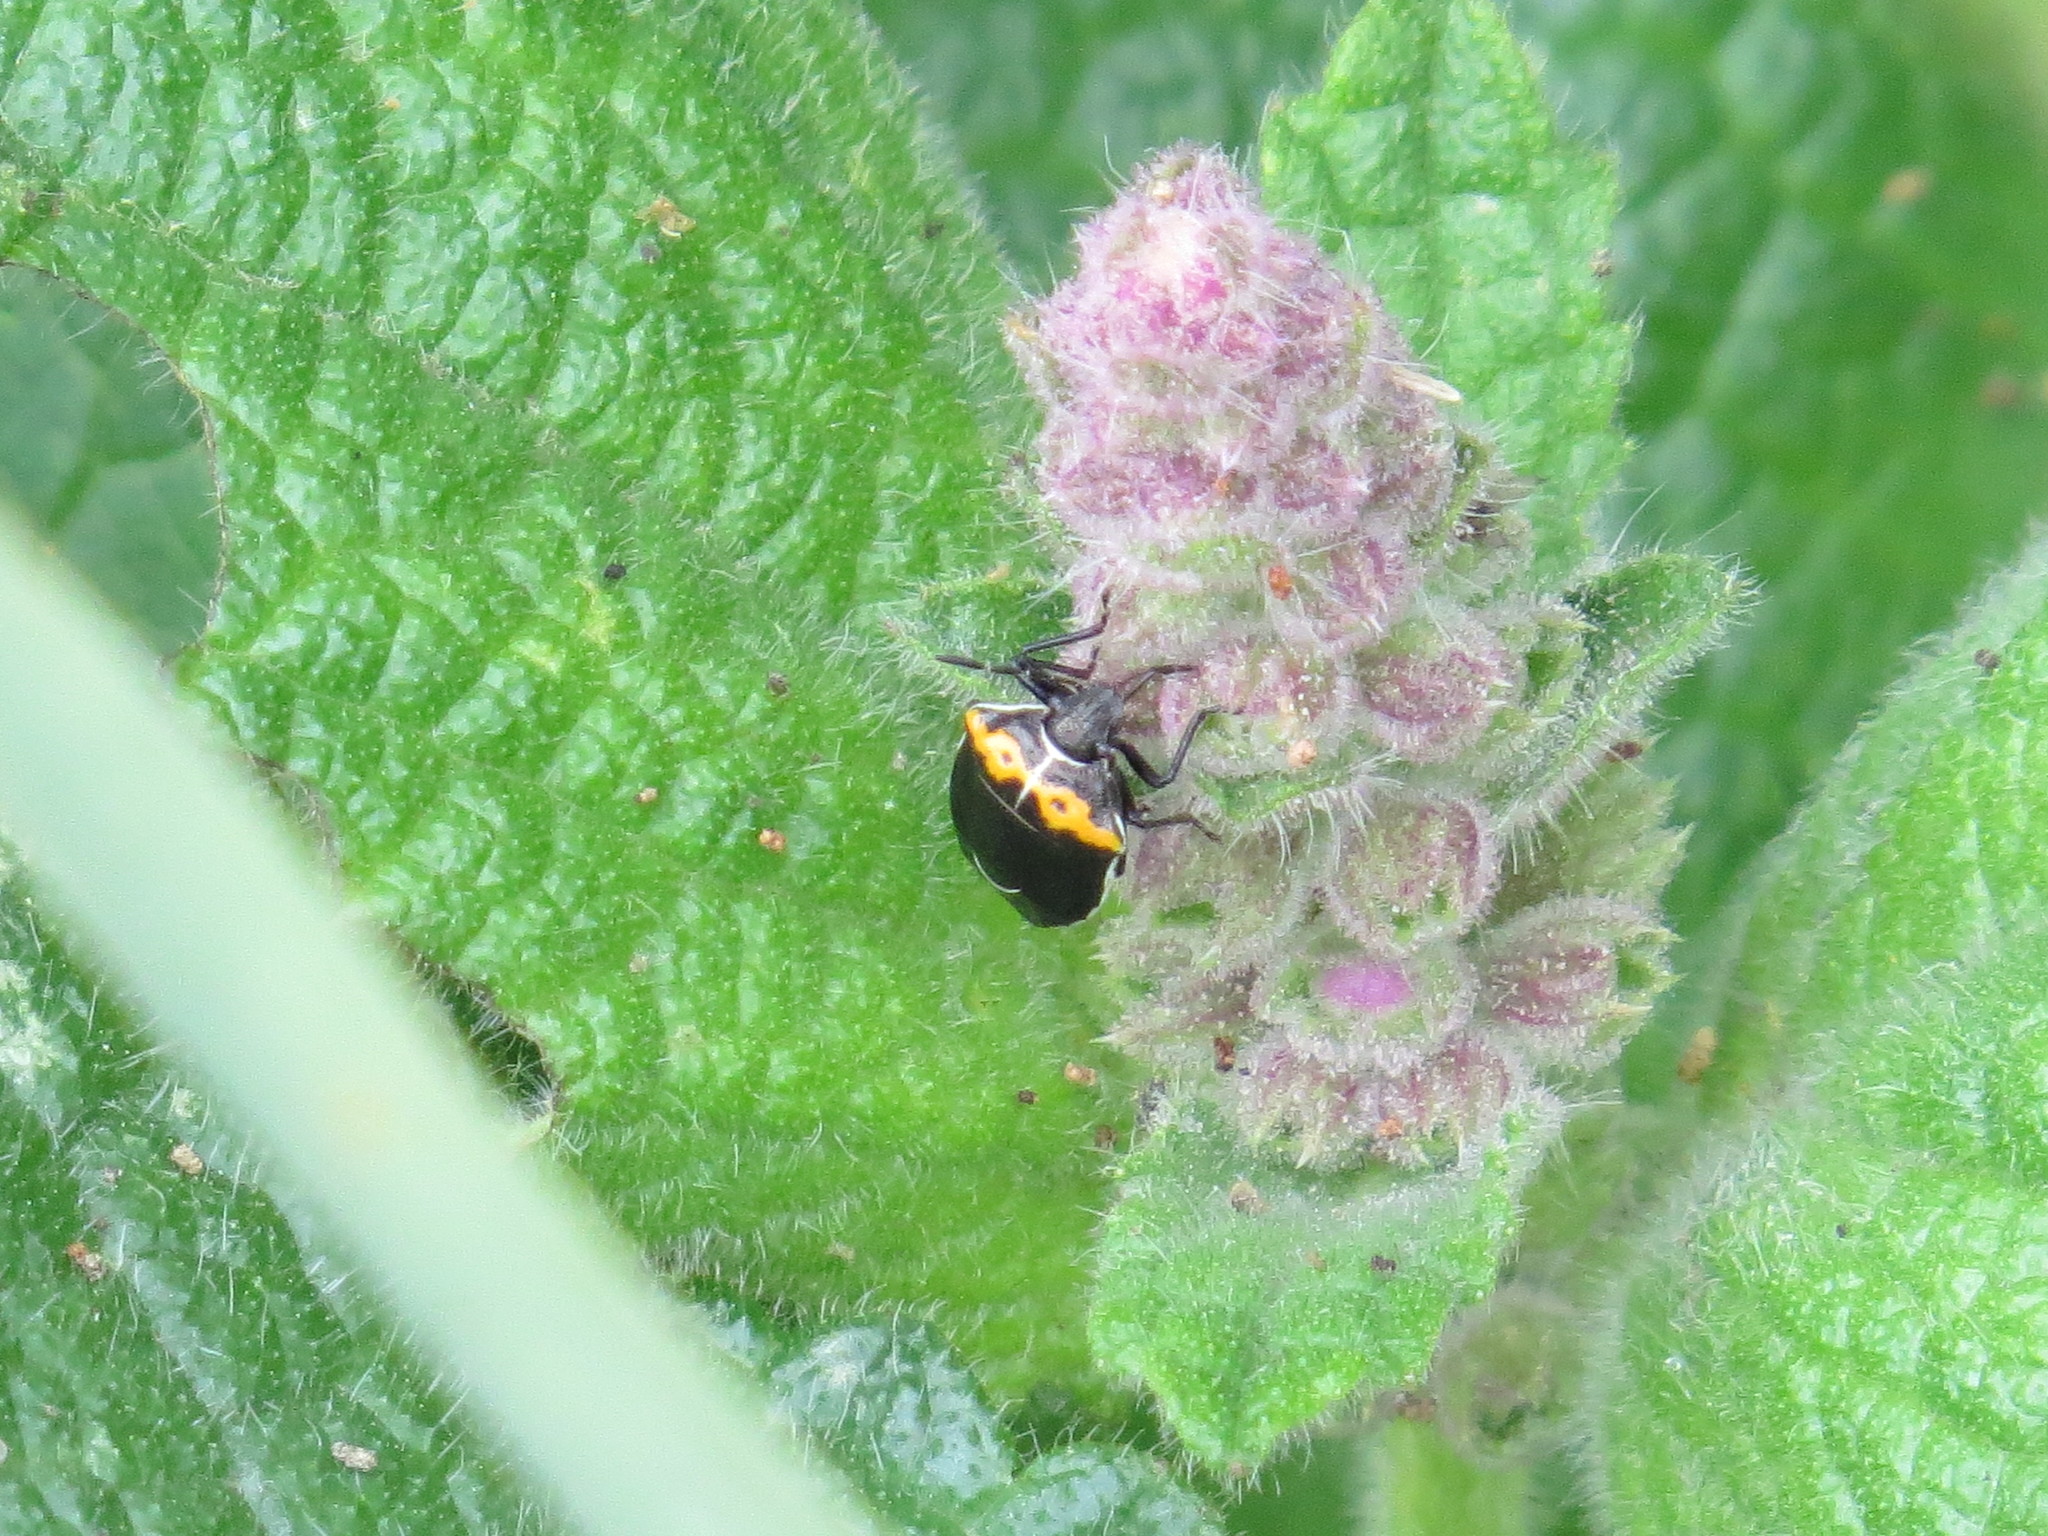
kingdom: Animalia
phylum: Arthropoda
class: Insecta
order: Hemiptera
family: Pentatomidae
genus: Cosmopepla
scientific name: Cosmopepla conspicillaris
